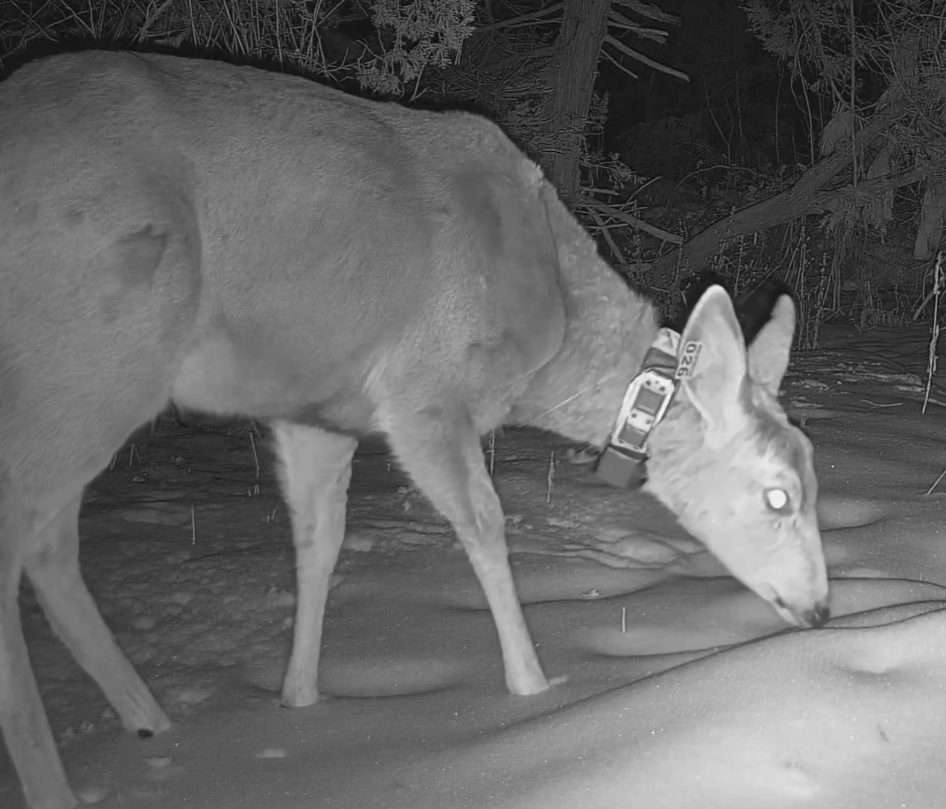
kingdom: Animalia
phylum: Chordata
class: Mammalia
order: Artiodactyla
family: Cervidae
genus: Odocoileus
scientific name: Odocoileus hemionus
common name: Mule deer
